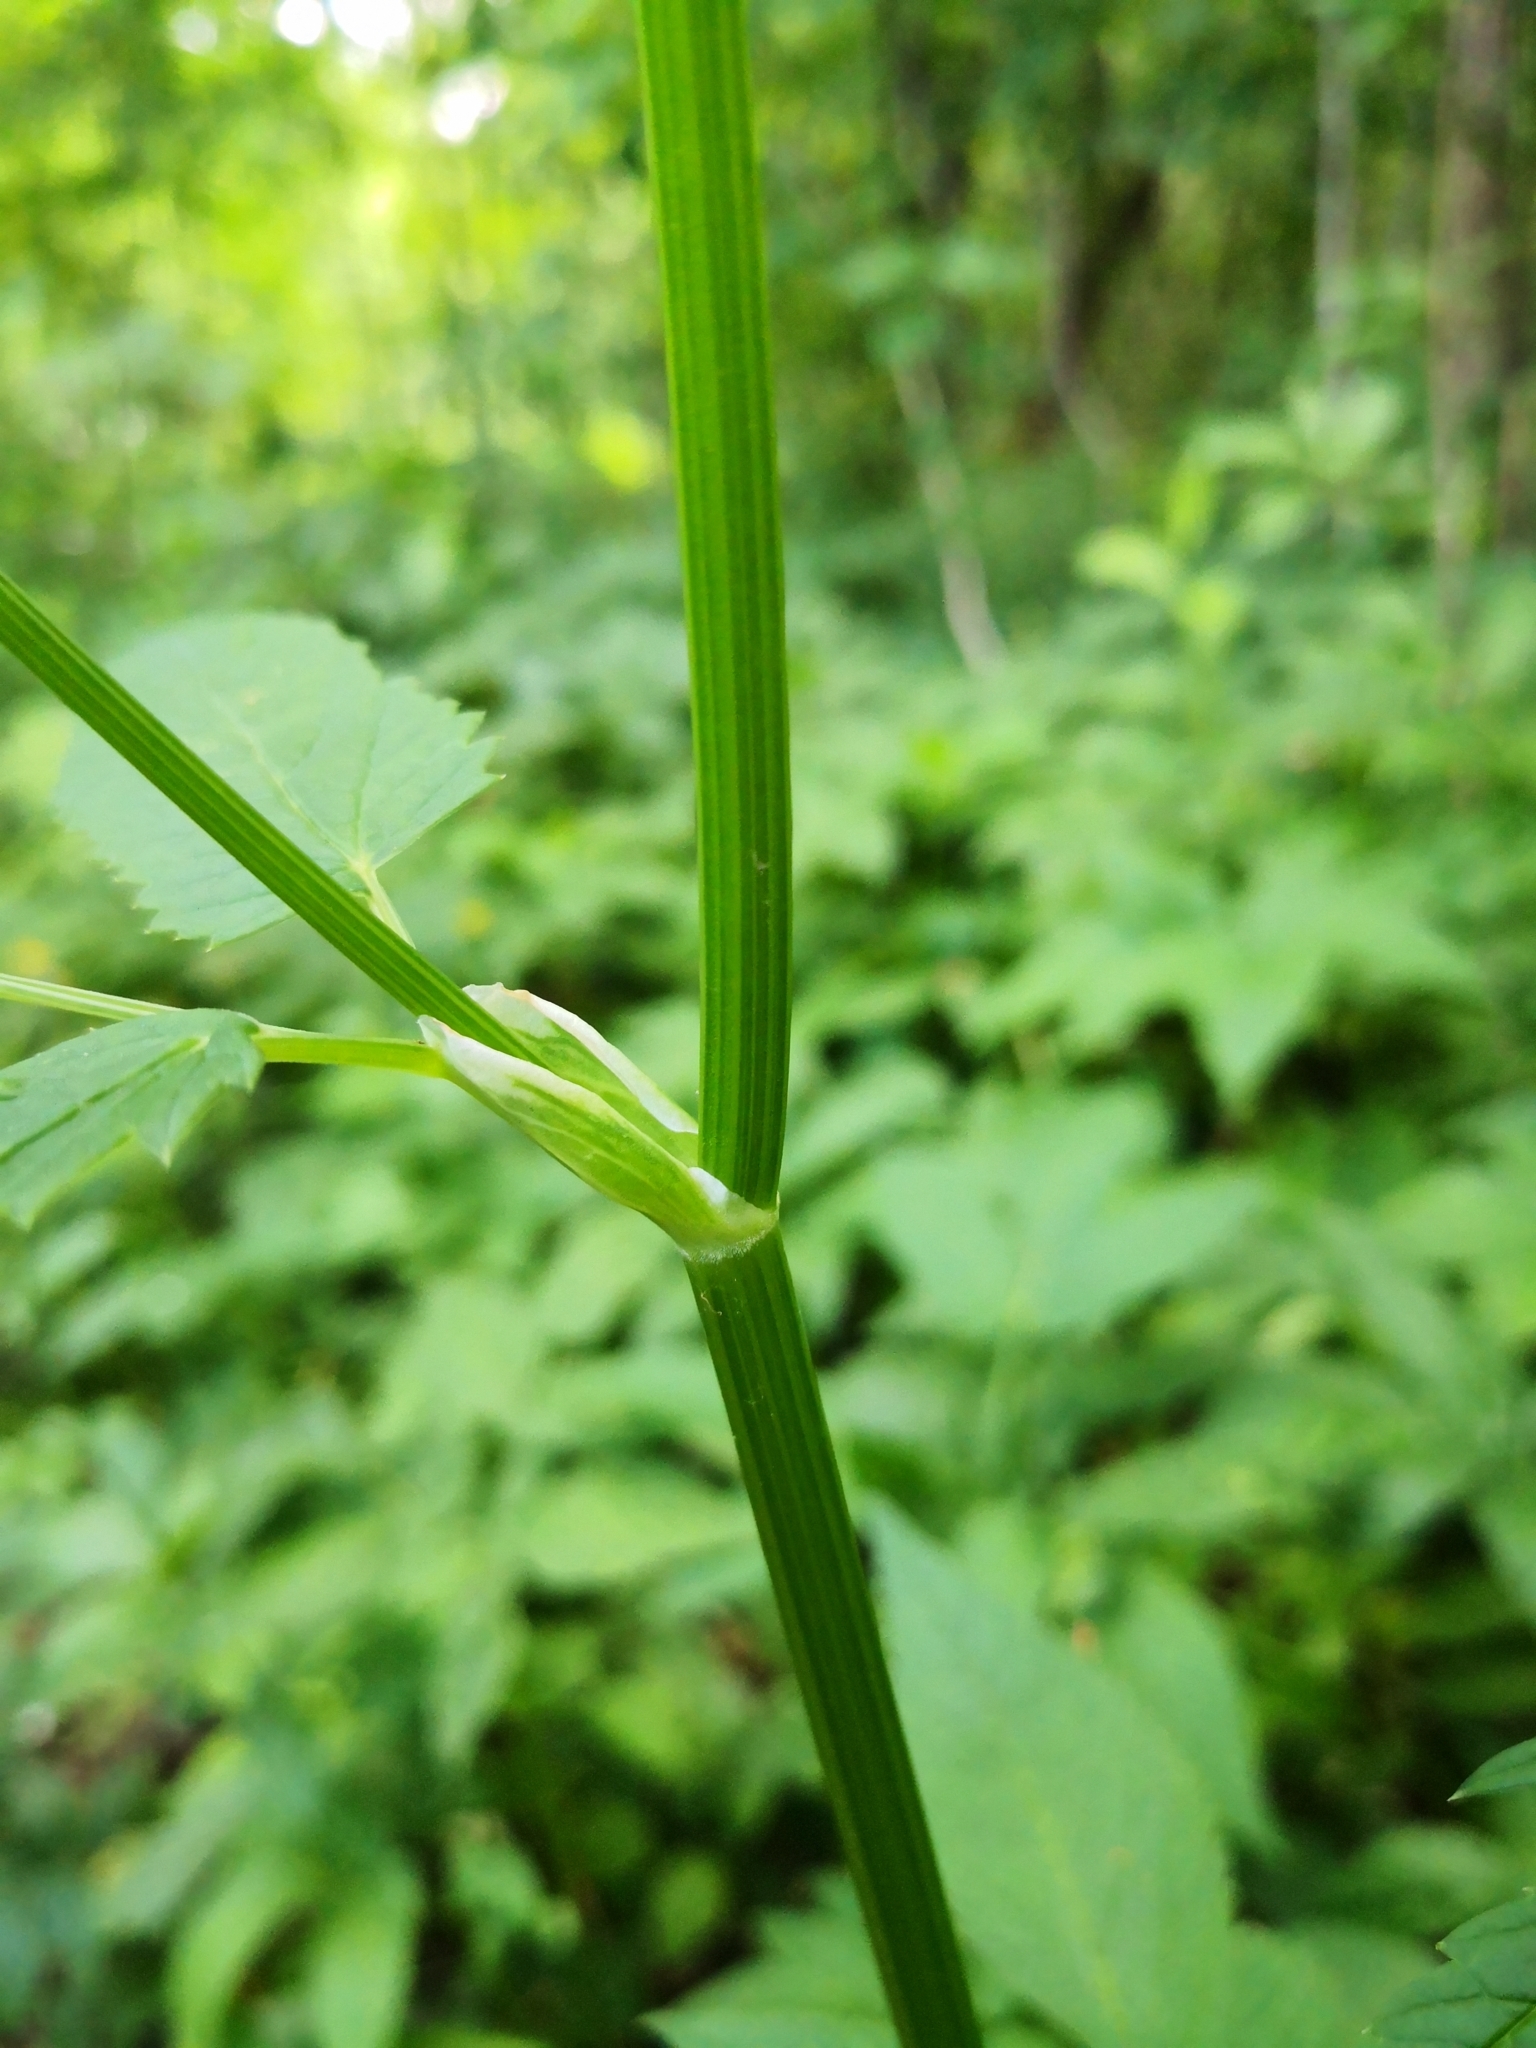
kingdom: Plantae
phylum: Tracheophyta
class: Magnoliopsida
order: Apiales
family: Apiaceae
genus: Aegopodium
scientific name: Aegopodium podagraria
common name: Ground-elder
